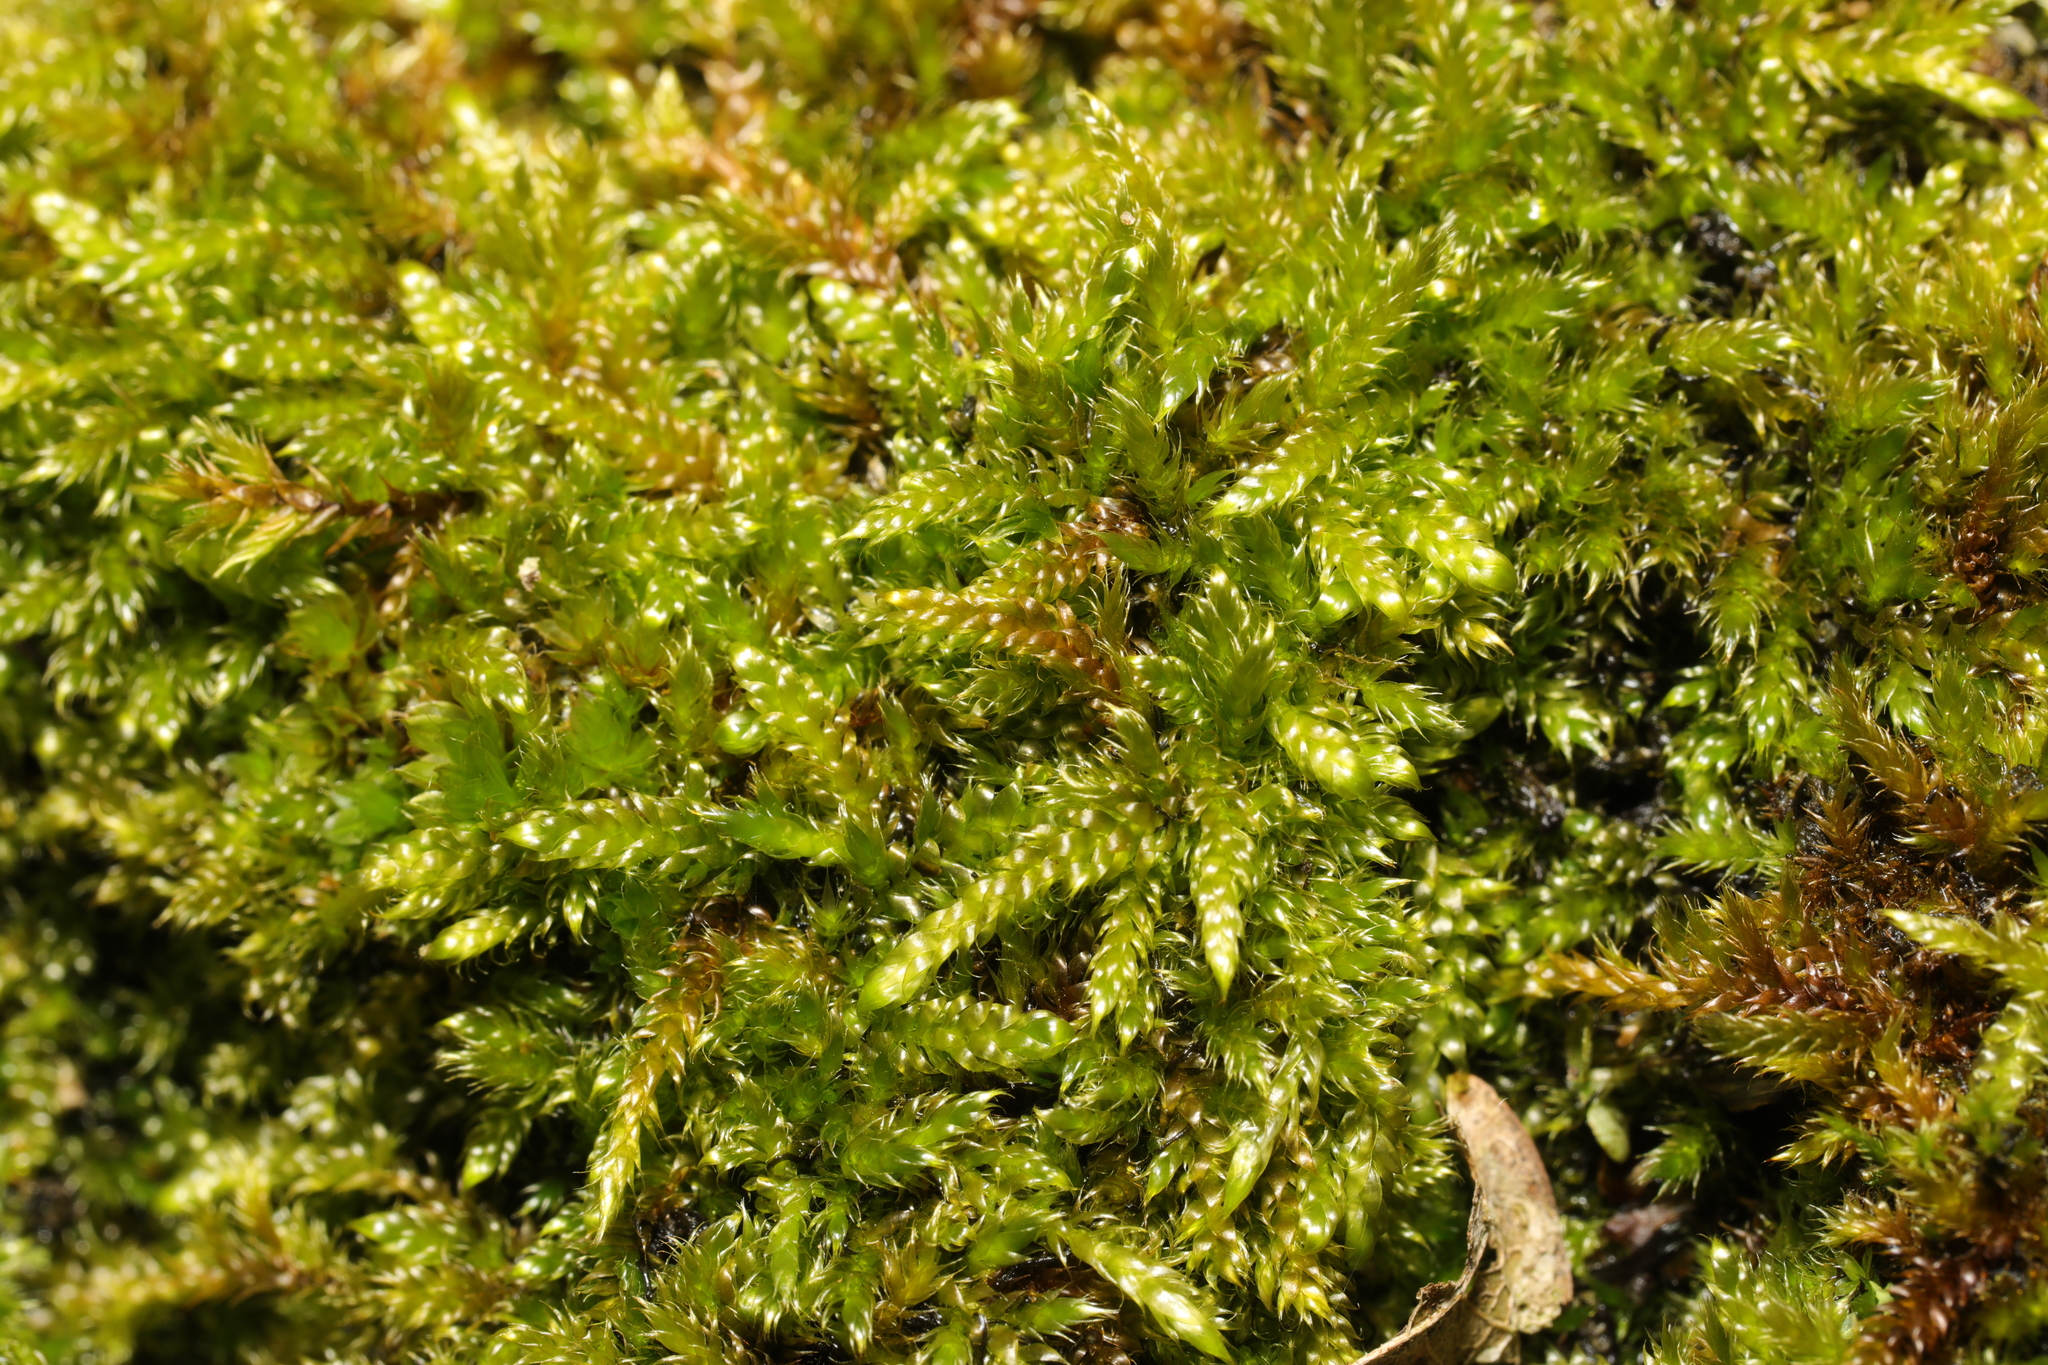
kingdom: Plantae
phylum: Bryophyta
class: Bryopsida
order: Hypnales
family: Hypnaceae
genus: Hypnum
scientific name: Hypnum cupressiforme
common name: Cypress-leaved plait-moss
